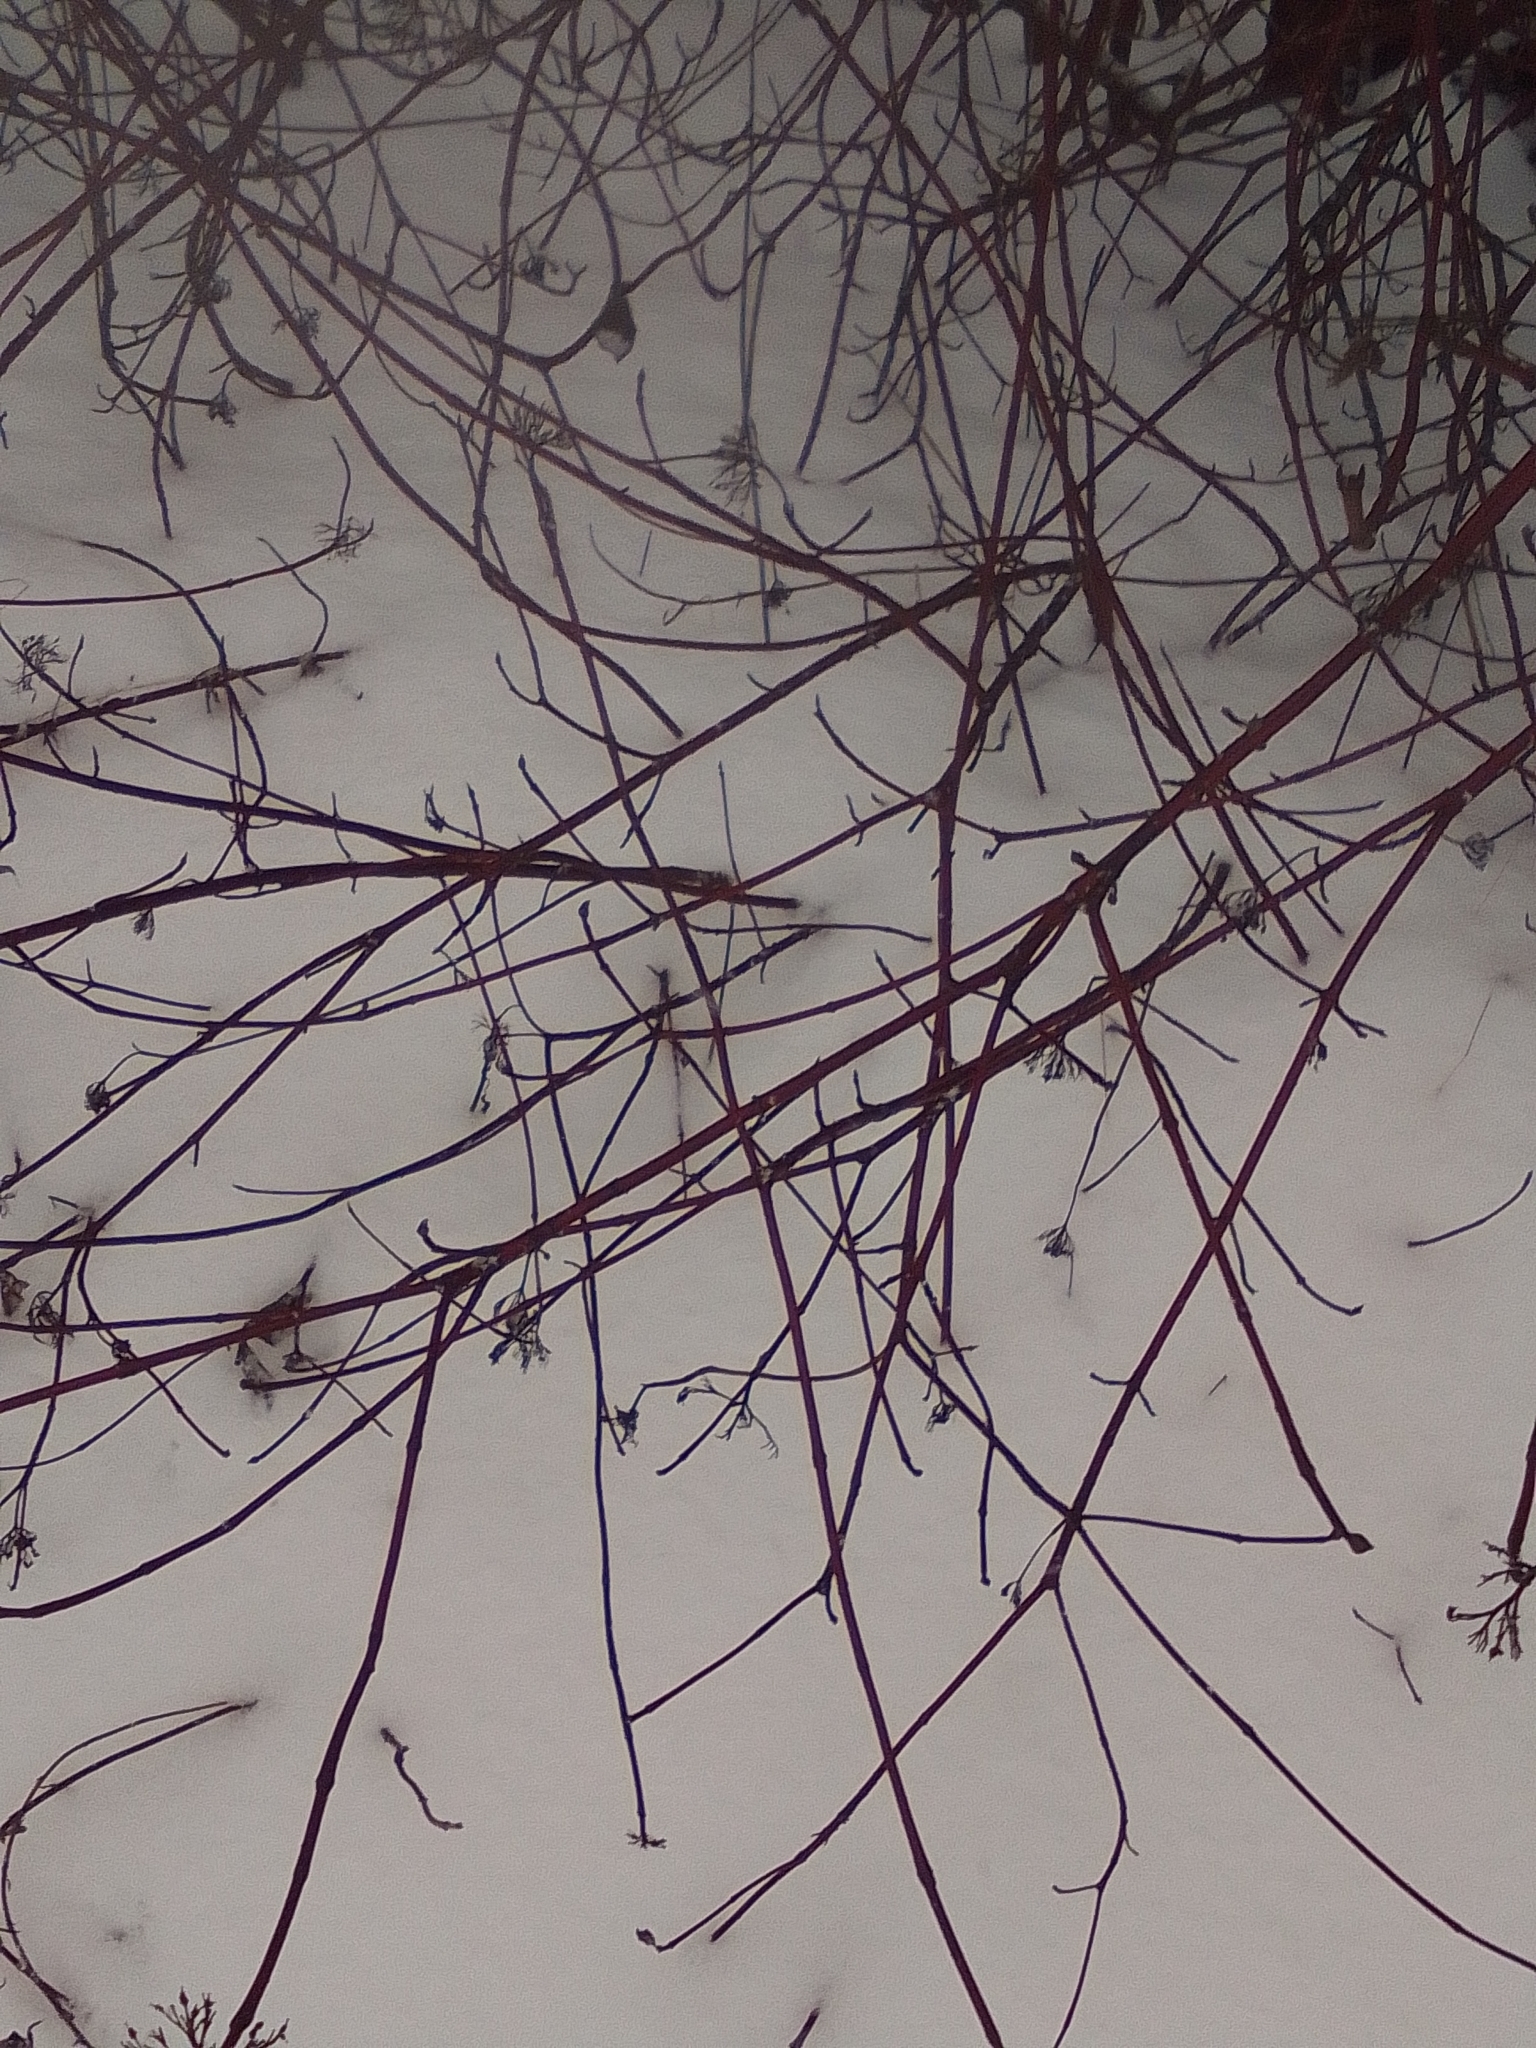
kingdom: Plantae
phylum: Tracheophyta
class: Magnoliopsida
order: Cornales
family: Cornaceae
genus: Cornus
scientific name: Cornus alba
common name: White dogwood
